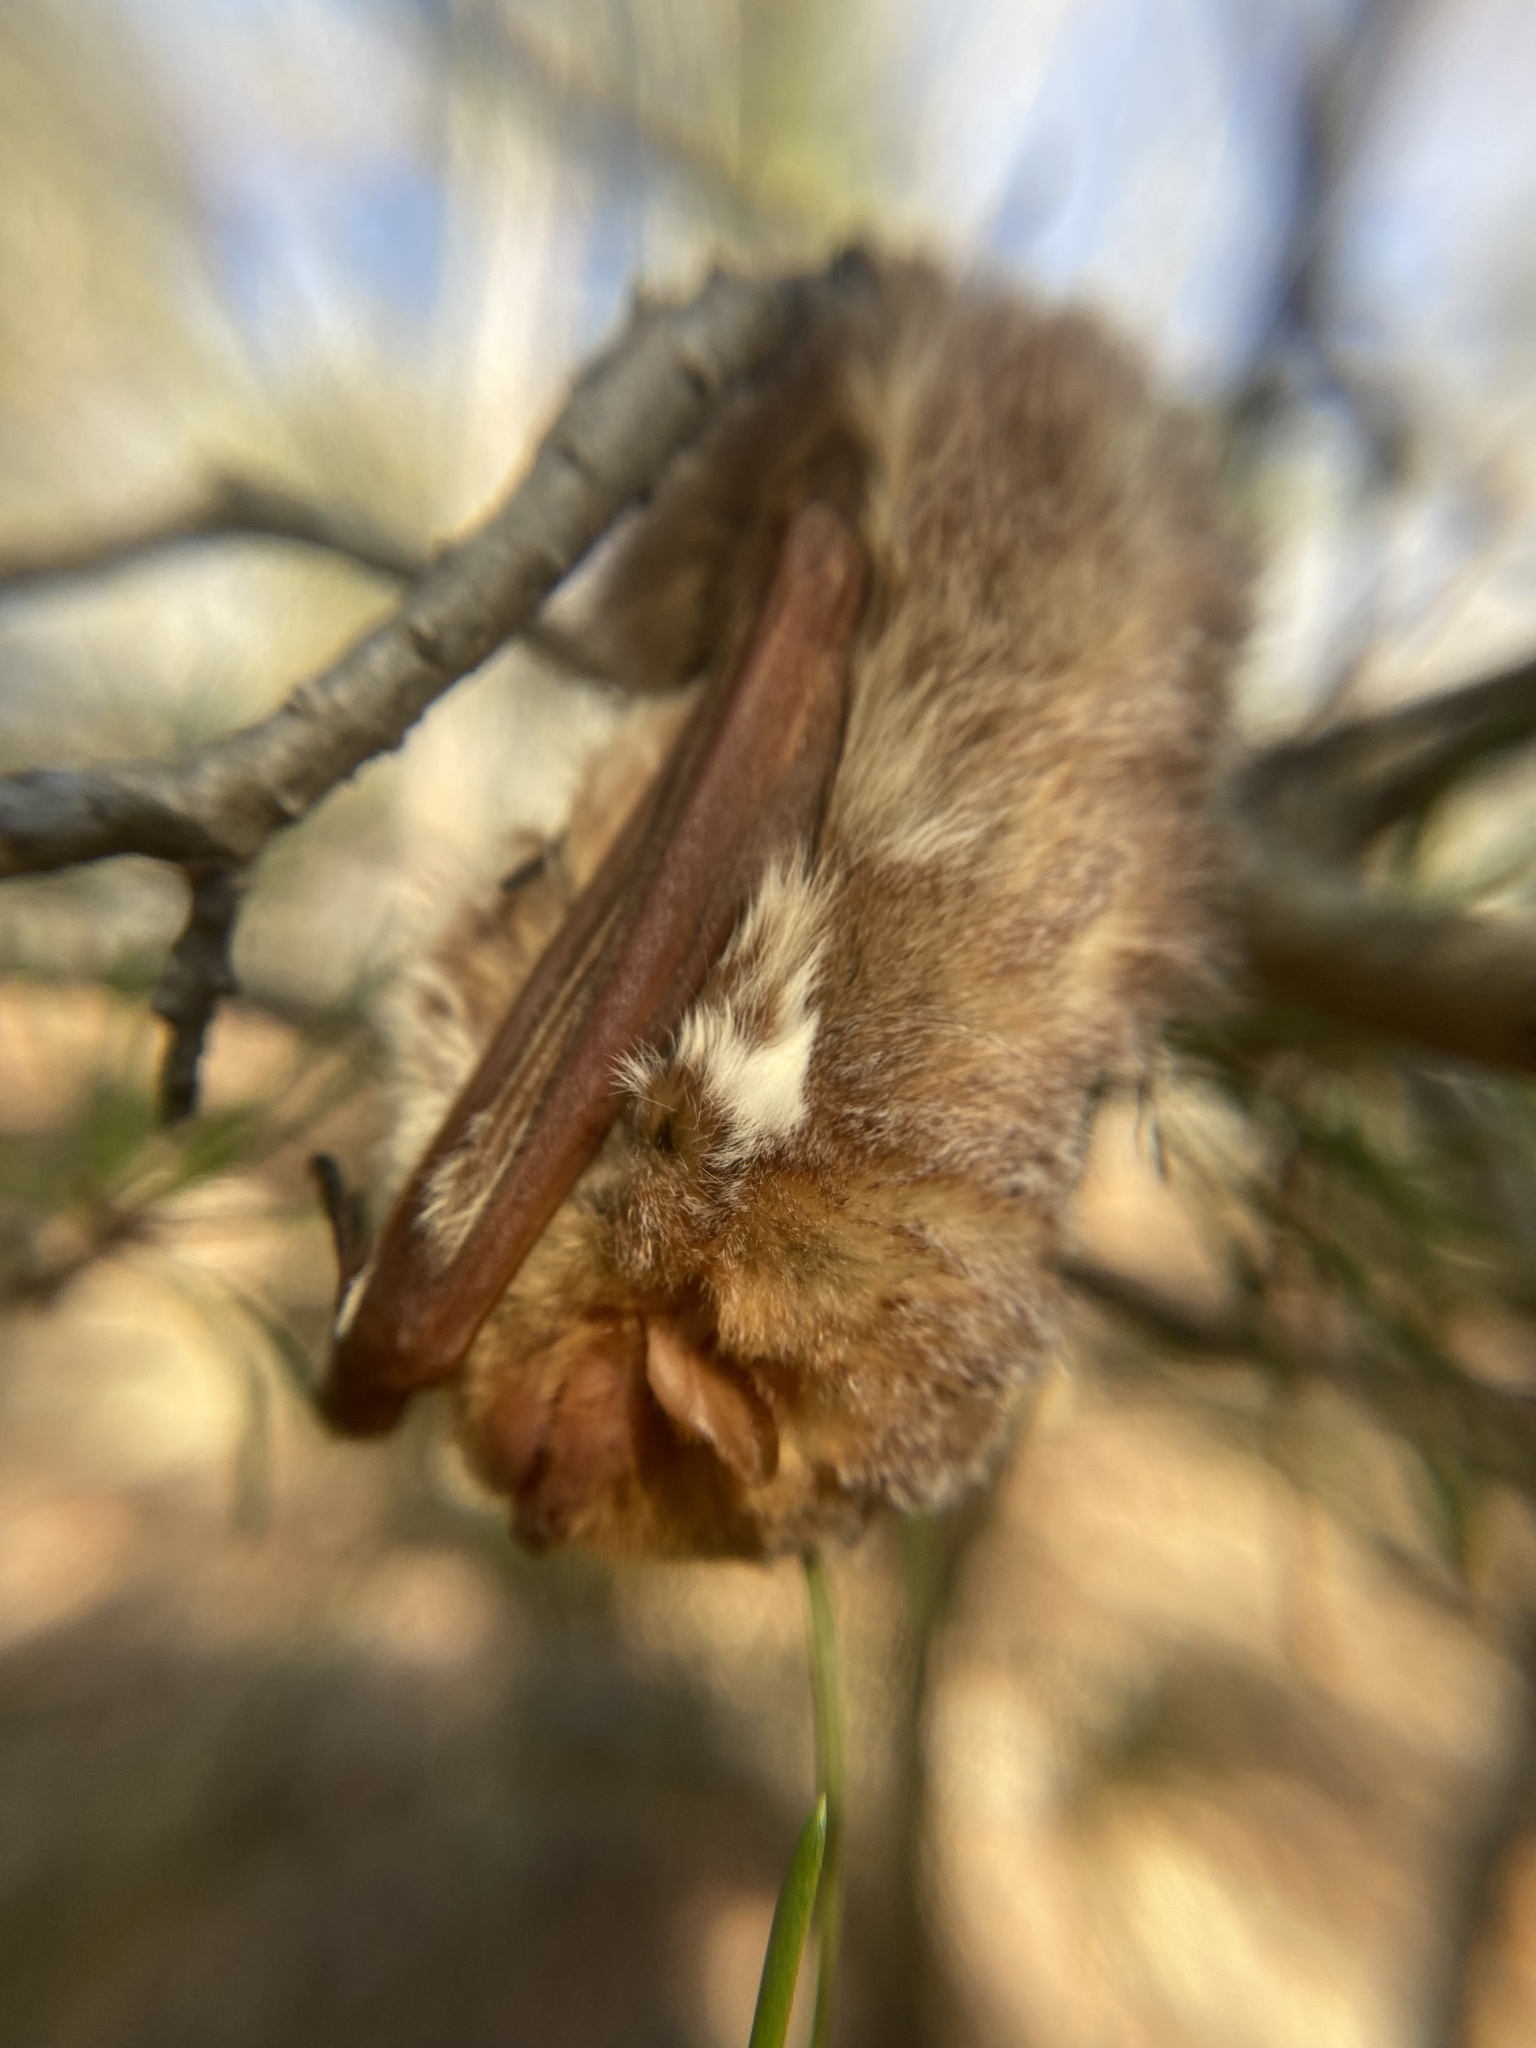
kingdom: Animalia
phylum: Chordata
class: Mammalia
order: Chiroptera
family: Vespertilionidae
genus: Lasiurus
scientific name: Lasiurus borealis
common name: Eastern red bat
